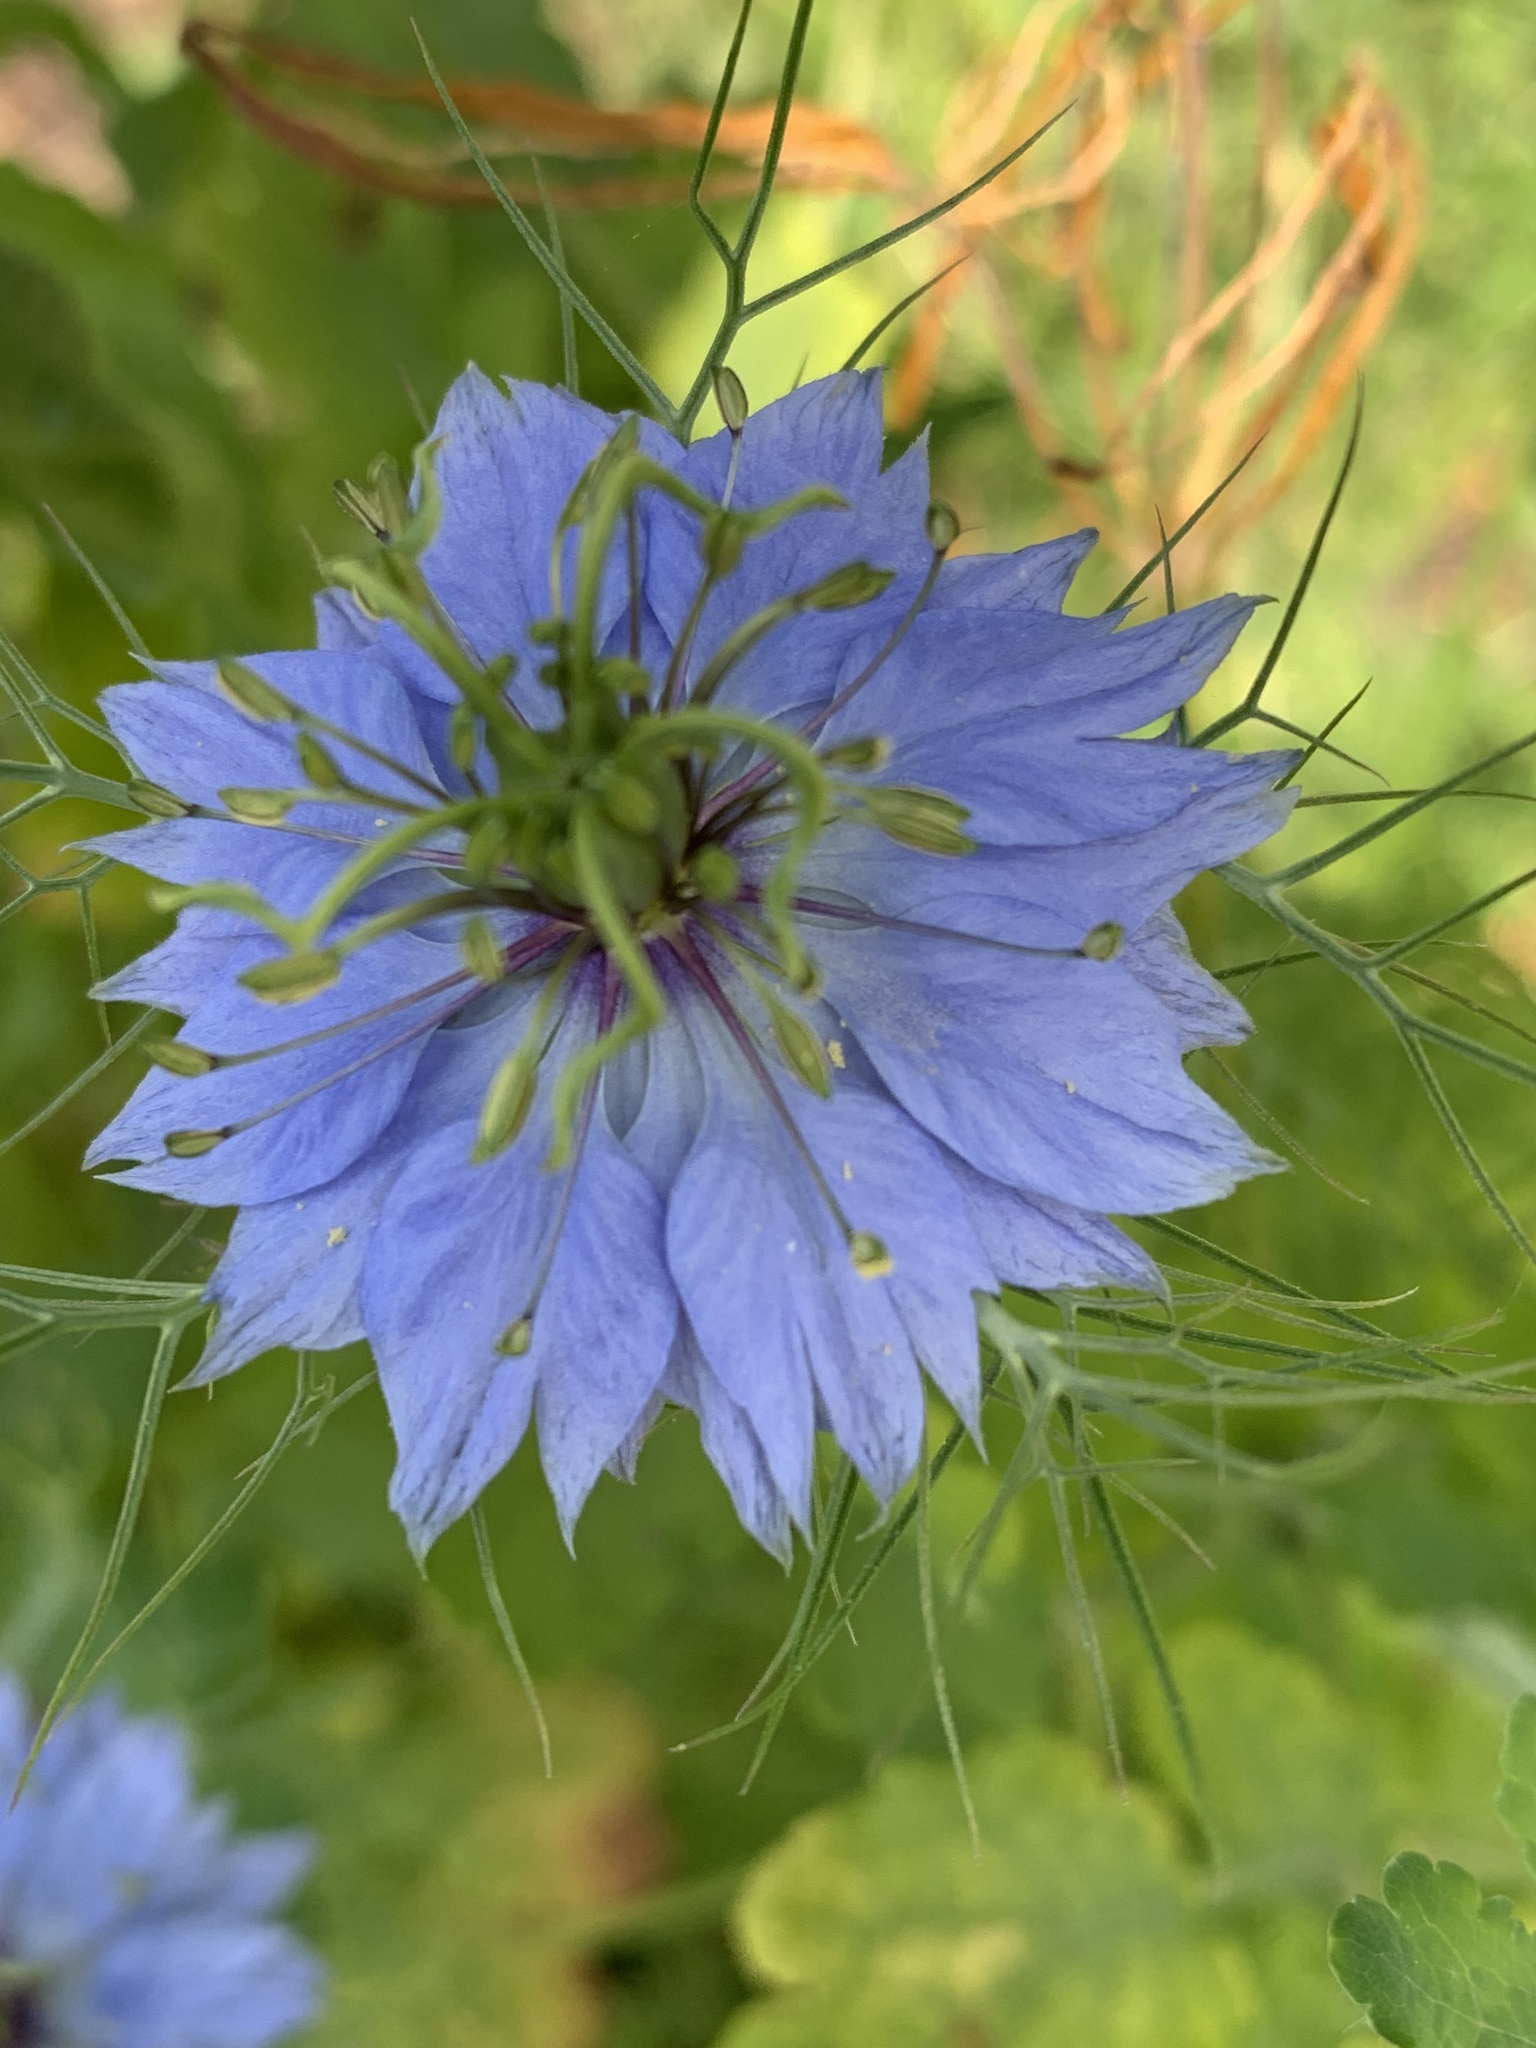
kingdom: Plantae
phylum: Tracheophyta
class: Magnoliopsida
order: Ranunculales
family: Ranunculaceae
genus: Nigella
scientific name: Nigella damascena
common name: Love-in-a-mist
